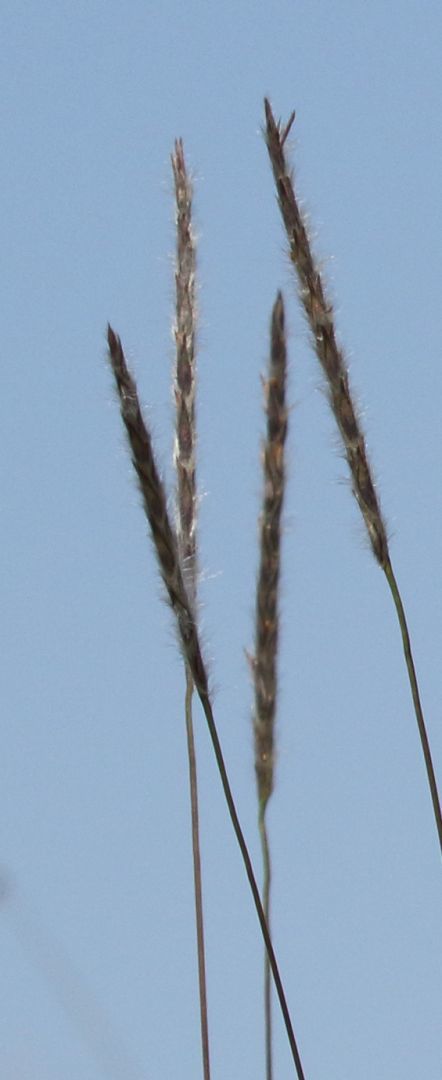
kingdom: Plantae
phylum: Tracheophyta
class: Liliopsida
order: Poales
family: Poaceae
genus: Elionurus
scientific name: Elionurus muticus
